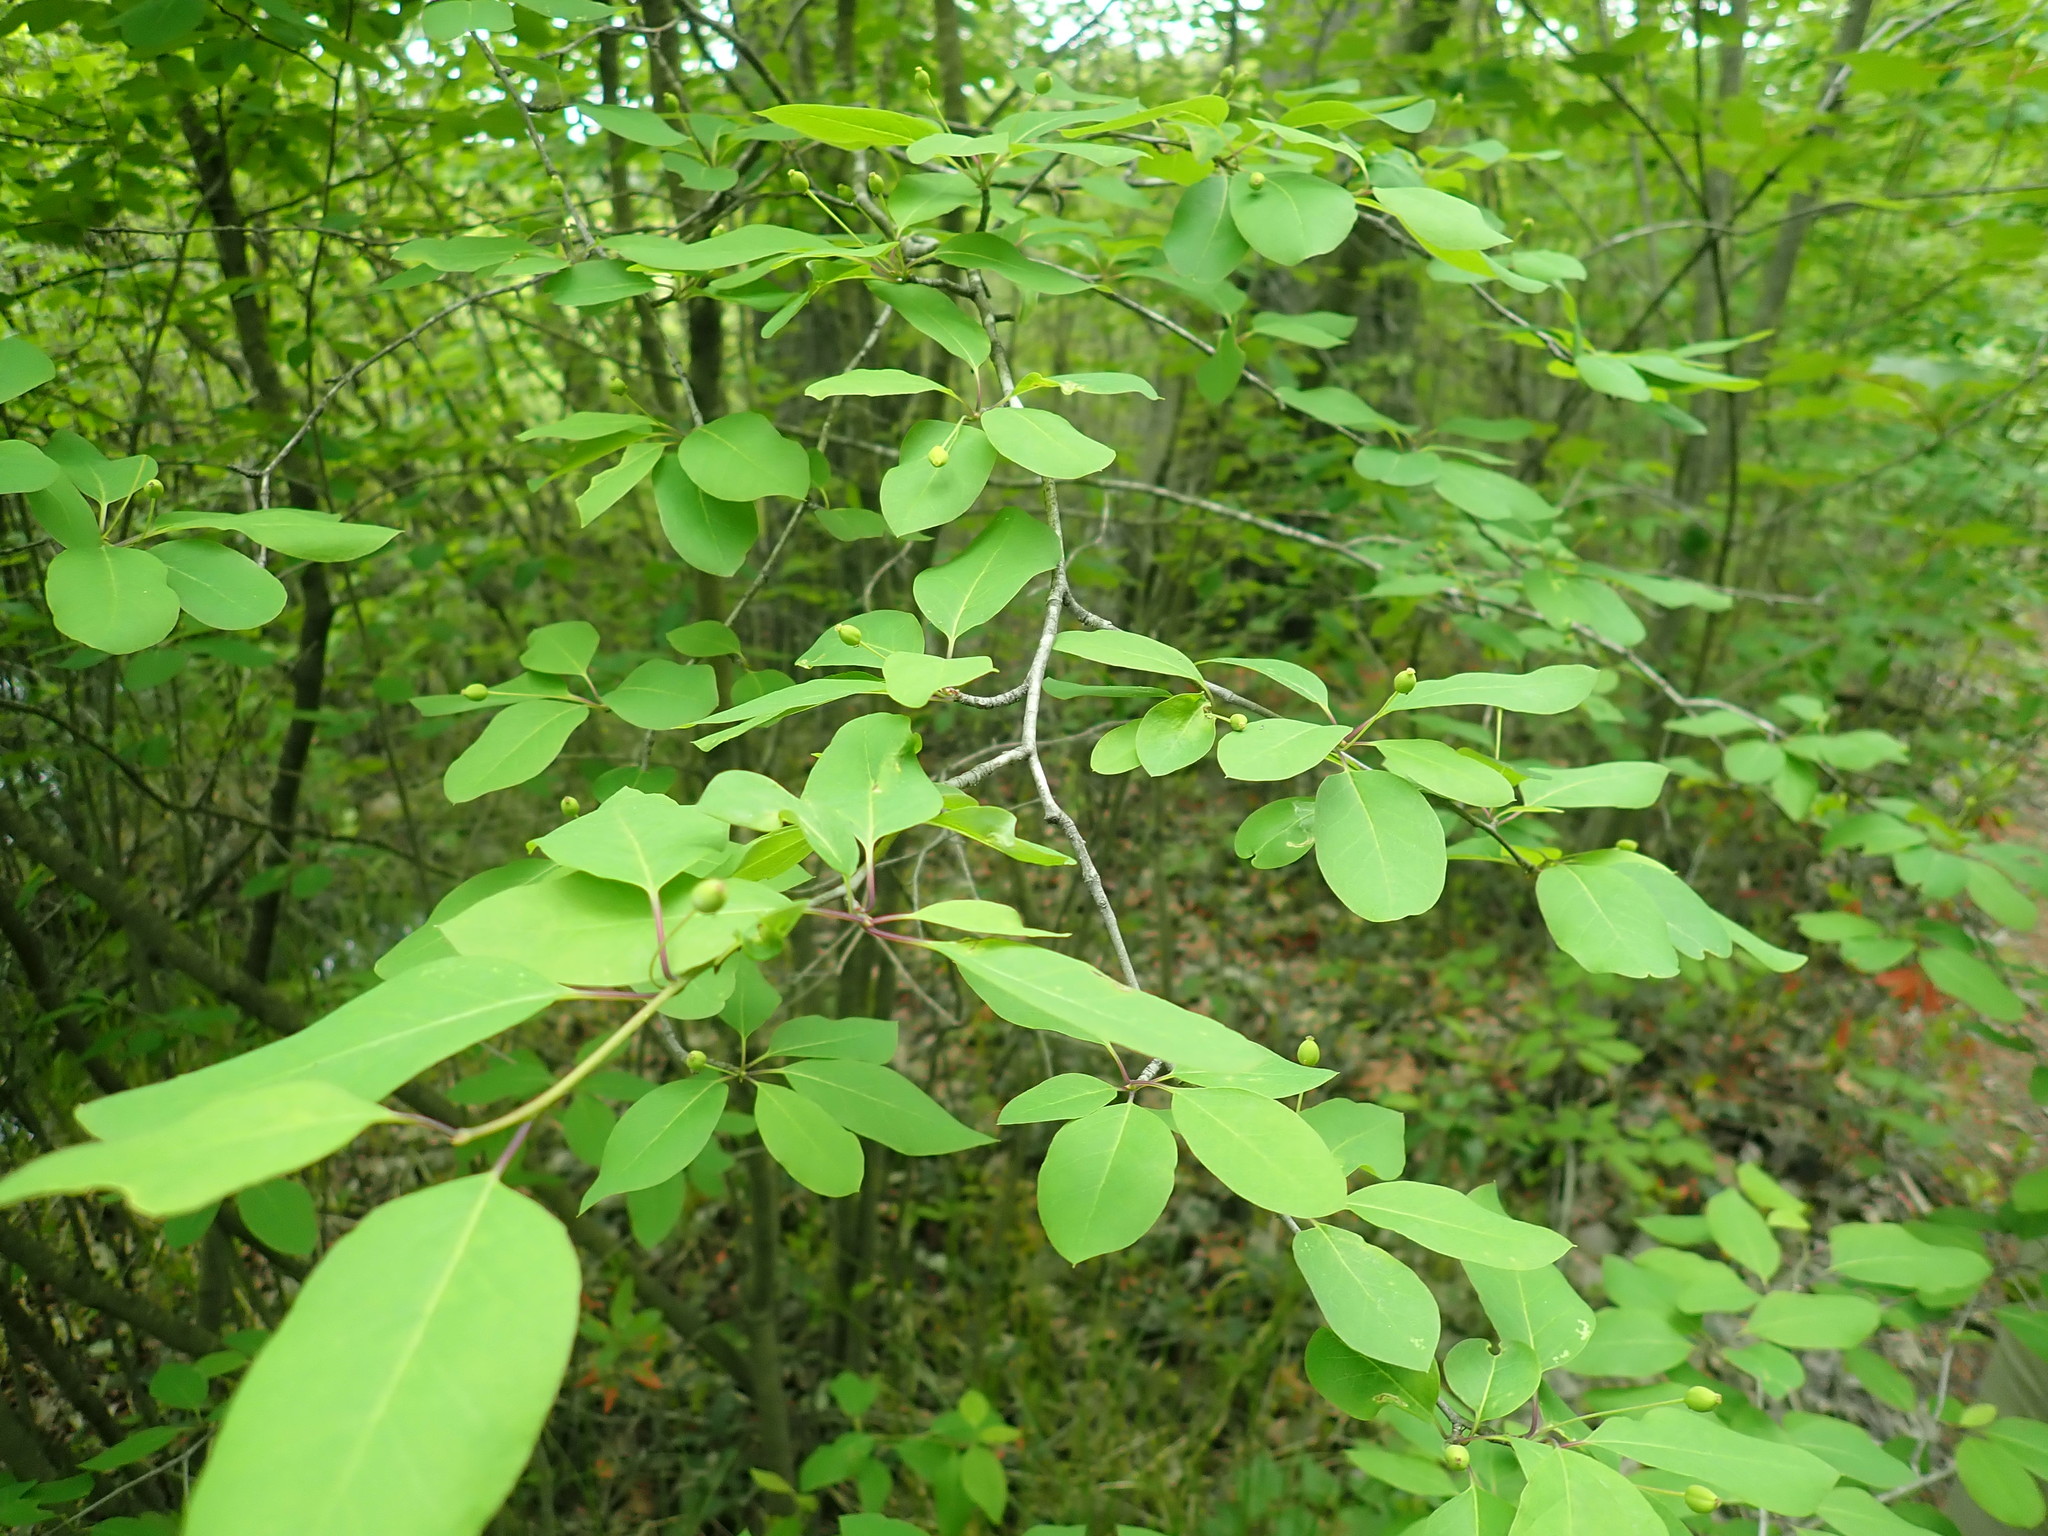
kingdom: Plantae
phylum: Tracheophyta
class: Magnoliopsida
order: Aquifoliales
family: Aquifoliaceae
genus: Ilex
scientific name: Ilex mucronata
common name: Catberry
